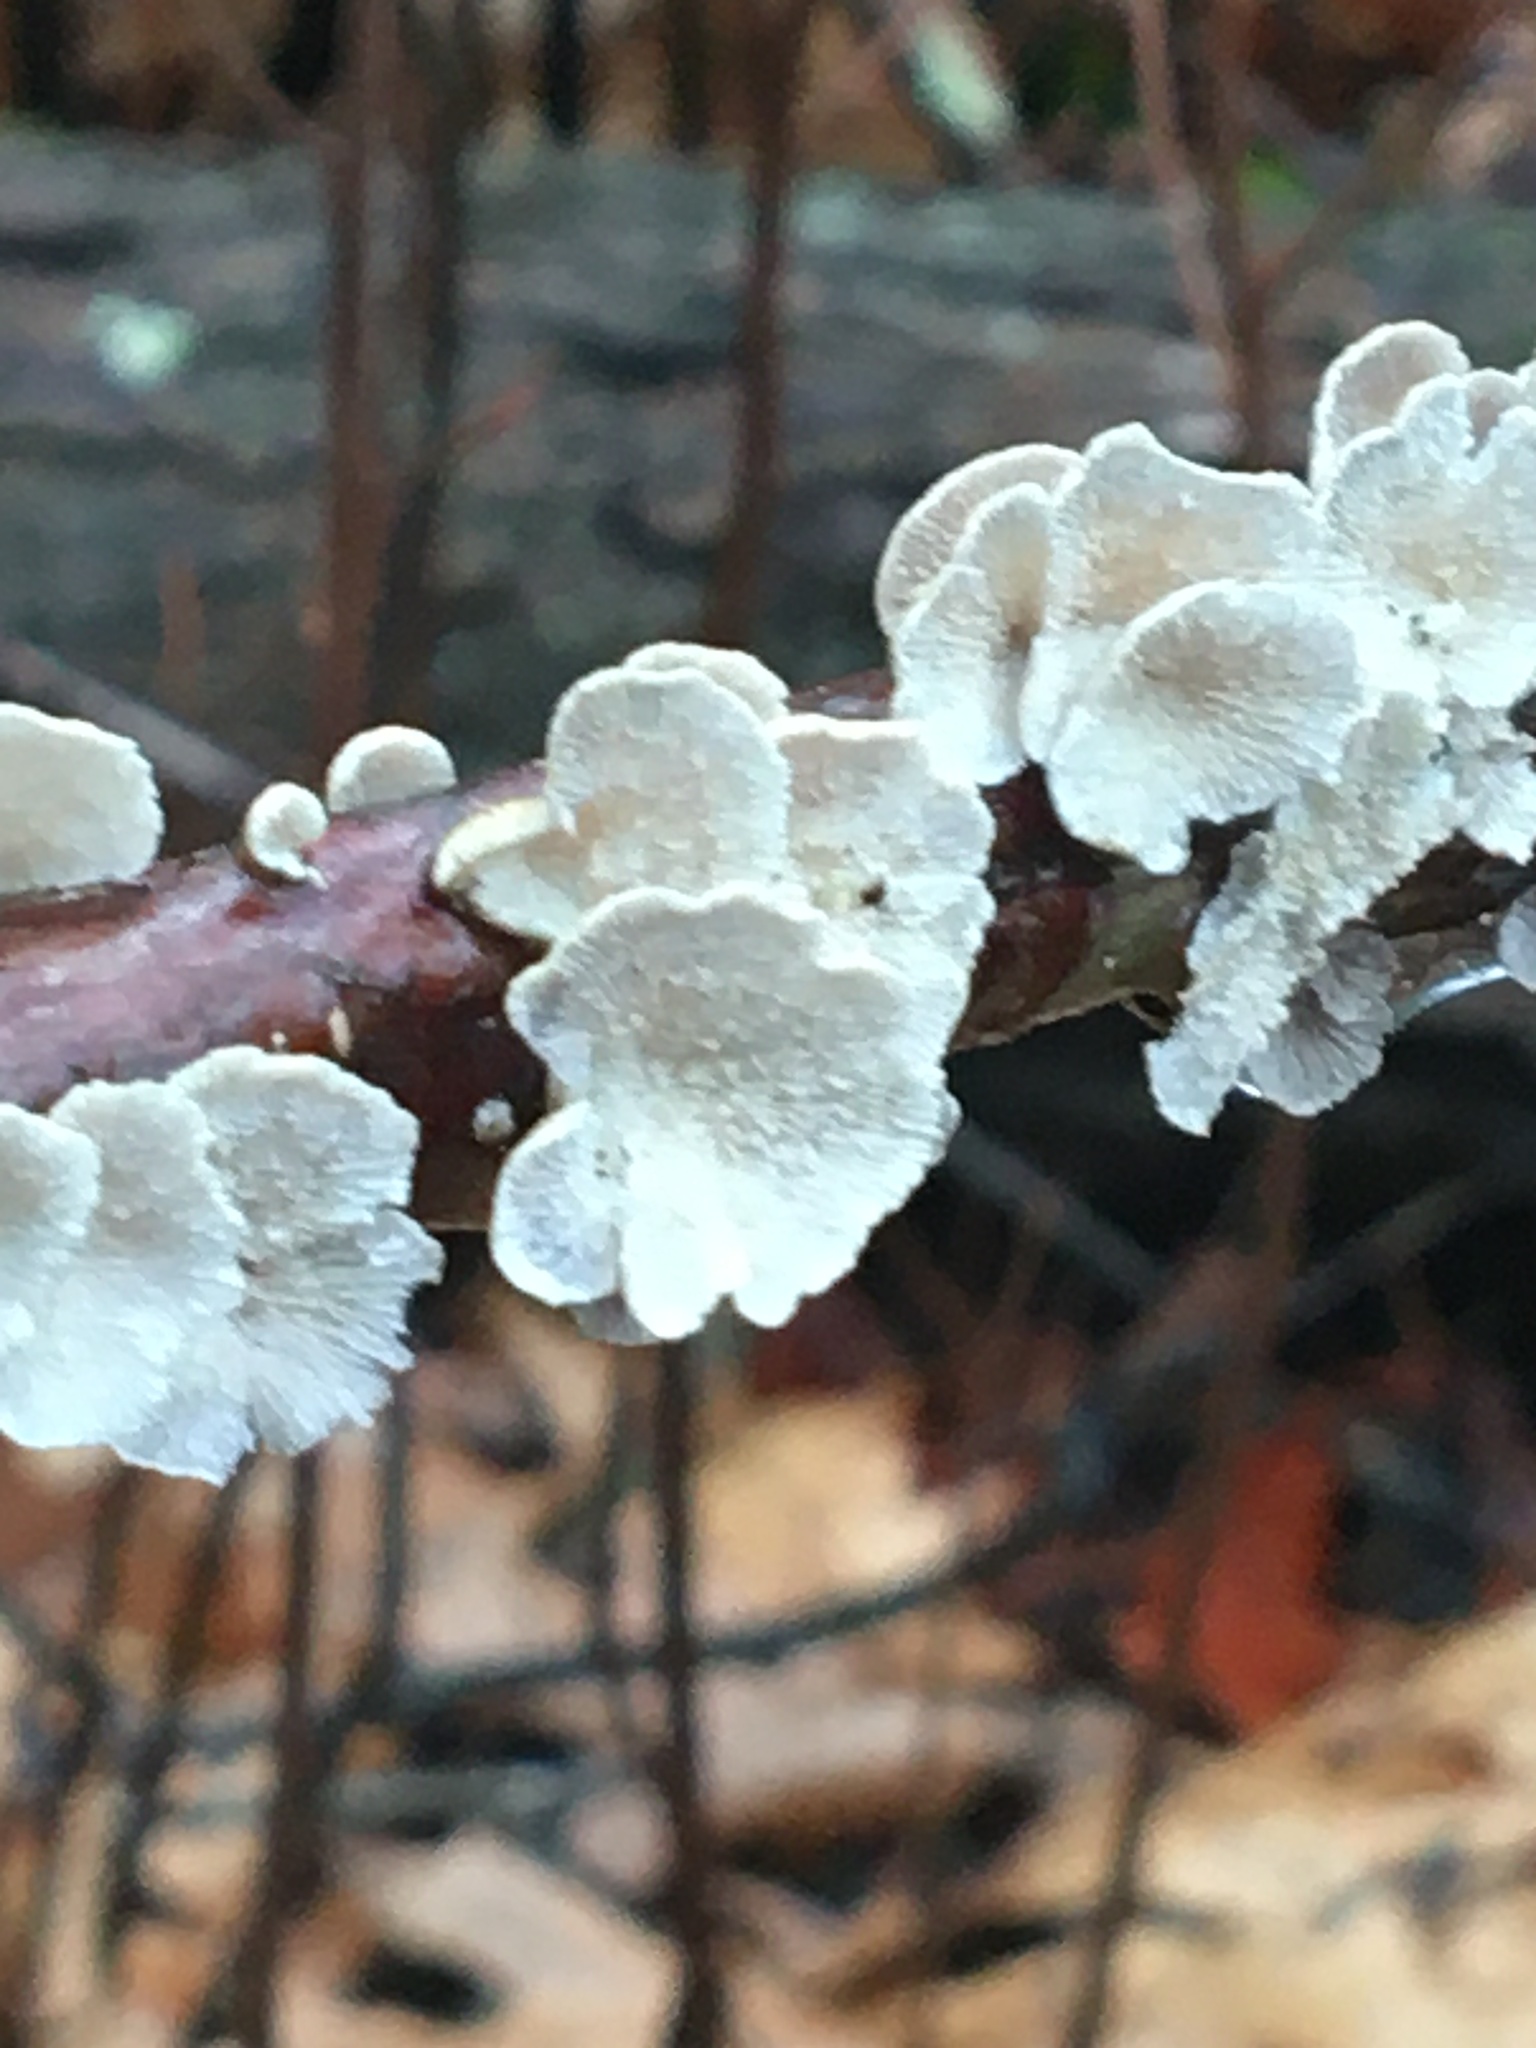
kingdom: Fungi
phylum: Basidiomycota
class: Agaricomycetes
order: Amylocorticiales
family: Amylocorticiaceae
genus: Plicaturopsis
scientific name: Plicaturopsis crispa
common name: Crimped gill
